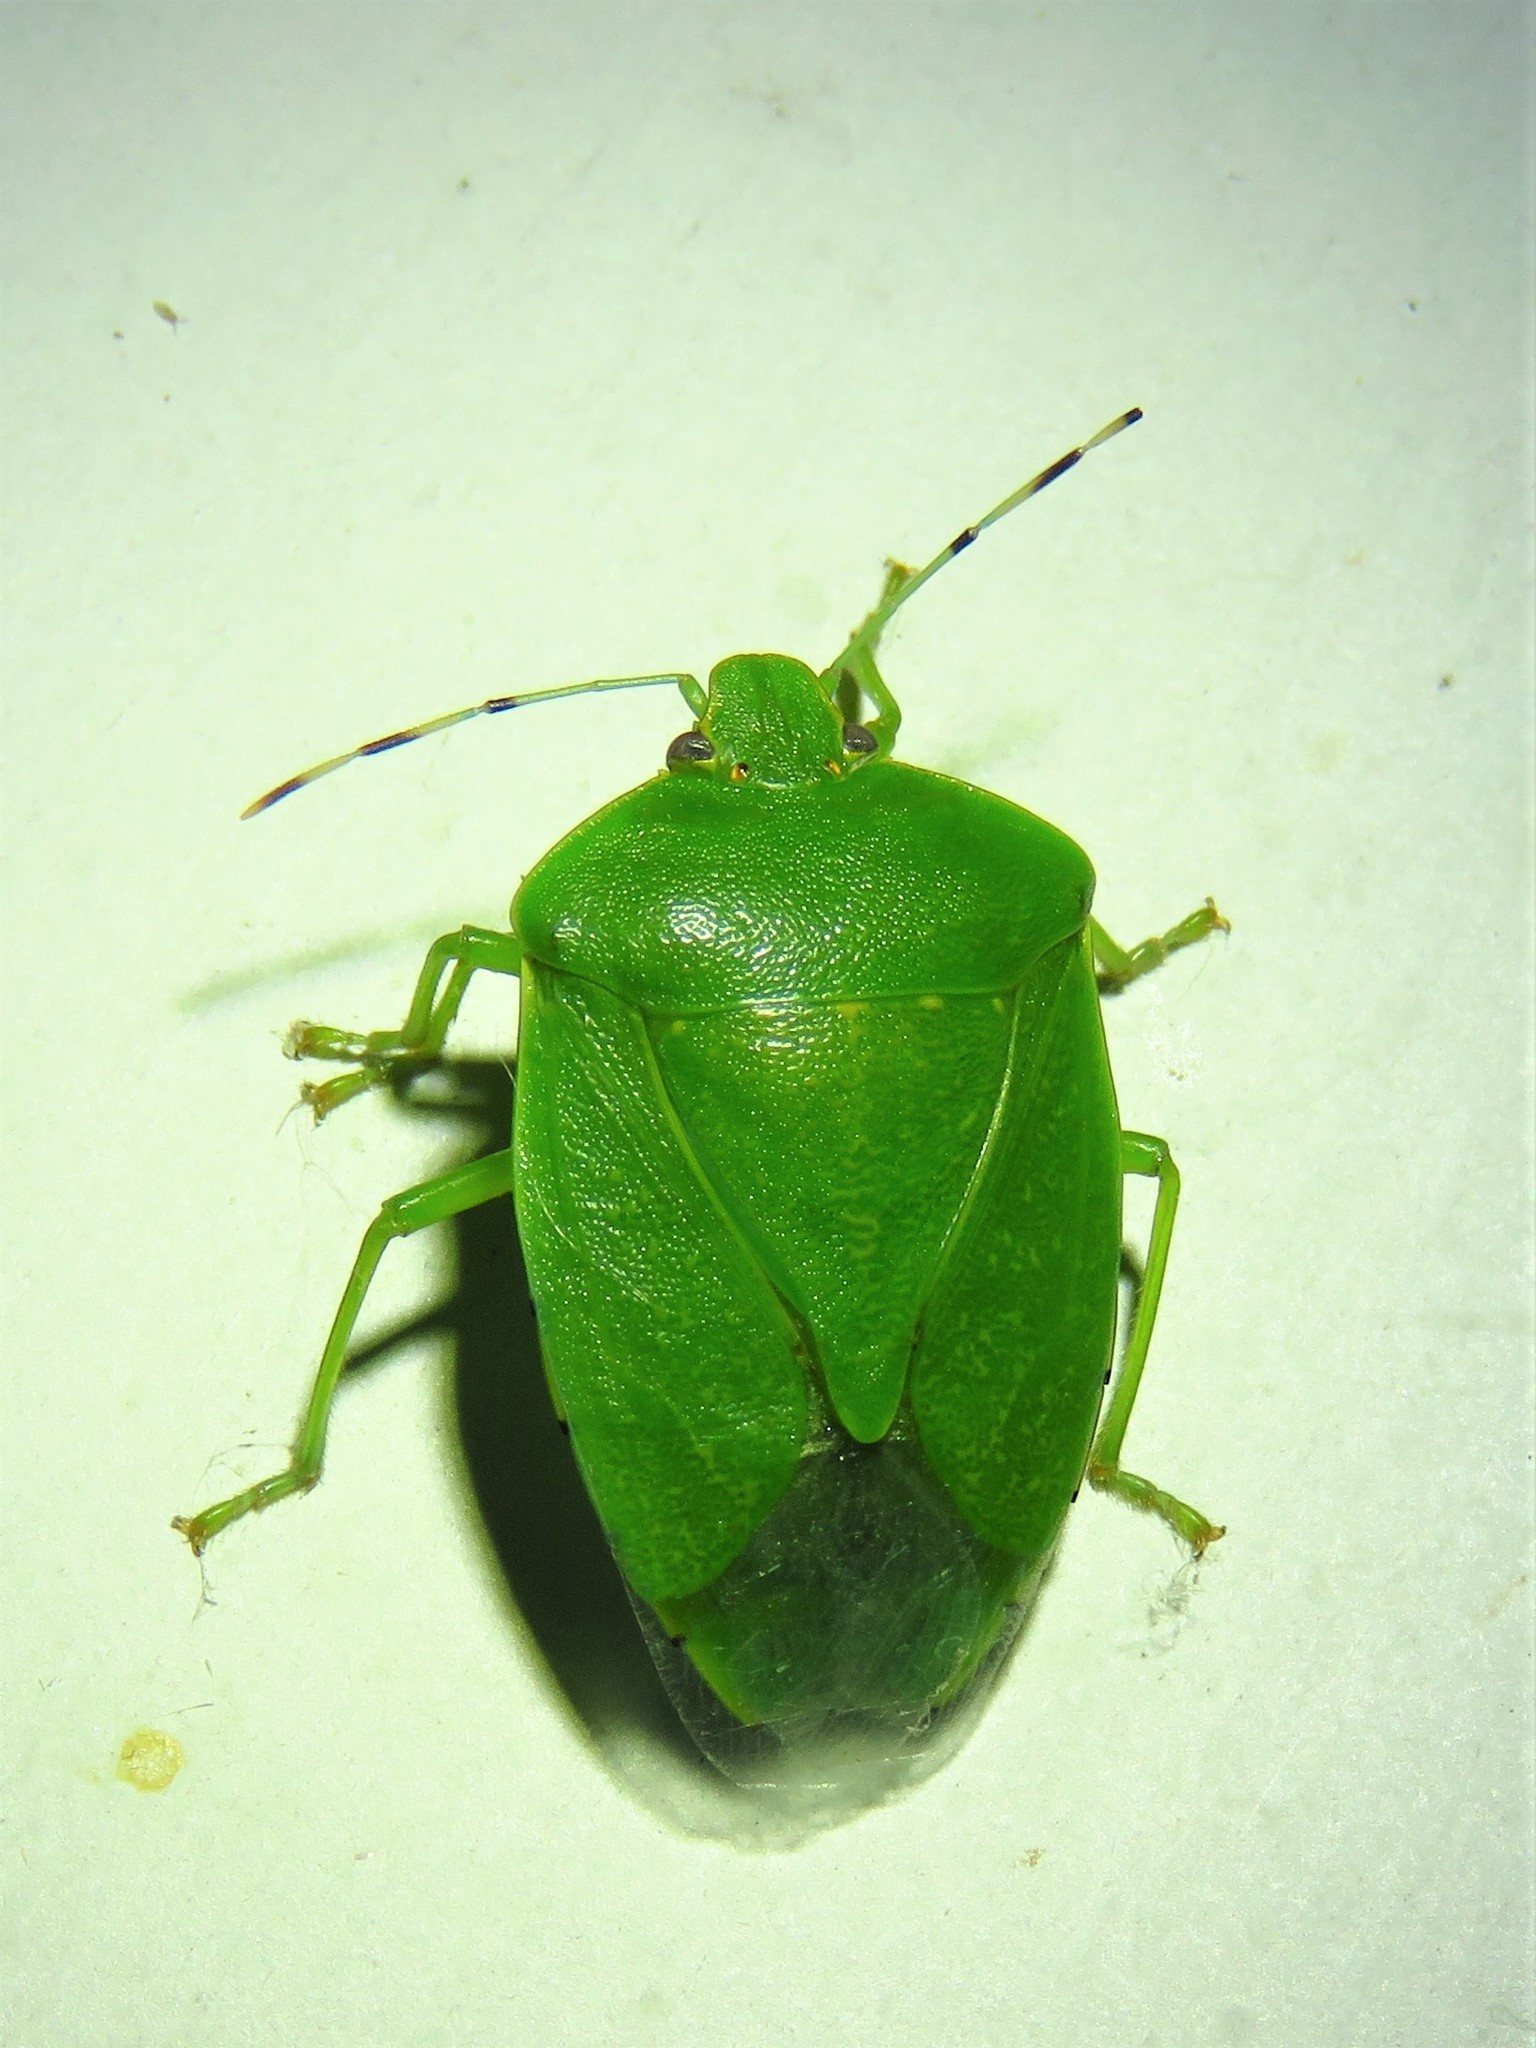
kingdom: Animalia
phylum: Arthropoda
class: Insecta
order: Hemiptera
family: Pentatomidae
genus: Chinavia
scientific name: Chinavia hilaris
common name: Green stink bug
